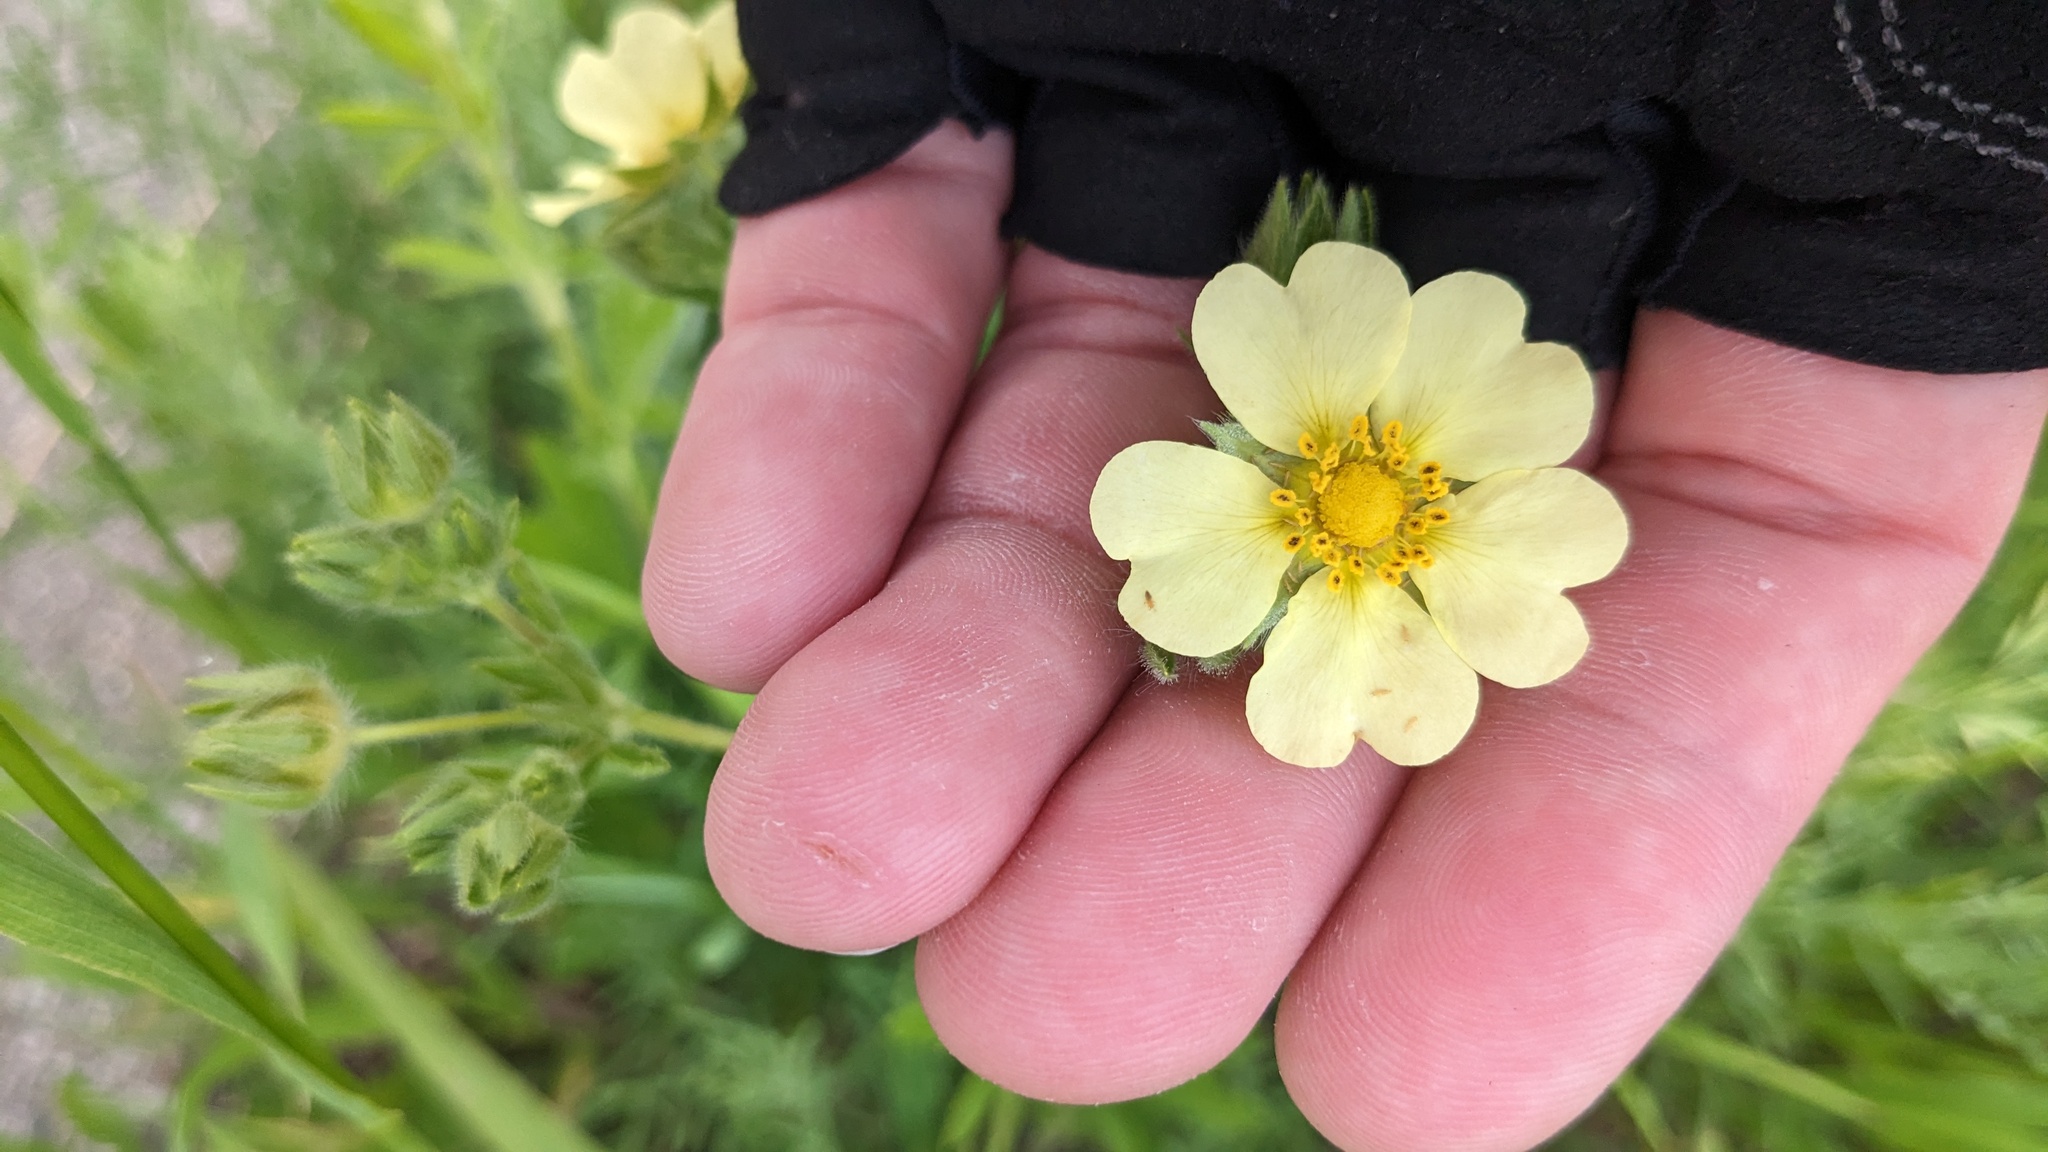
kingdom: Plantae
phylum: Tracheophyta
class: Magnoliopsida
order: Rosales
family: Rosaceae
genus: Potentilla
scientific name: Potentilla recta
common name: Sulphur cinquefoil
